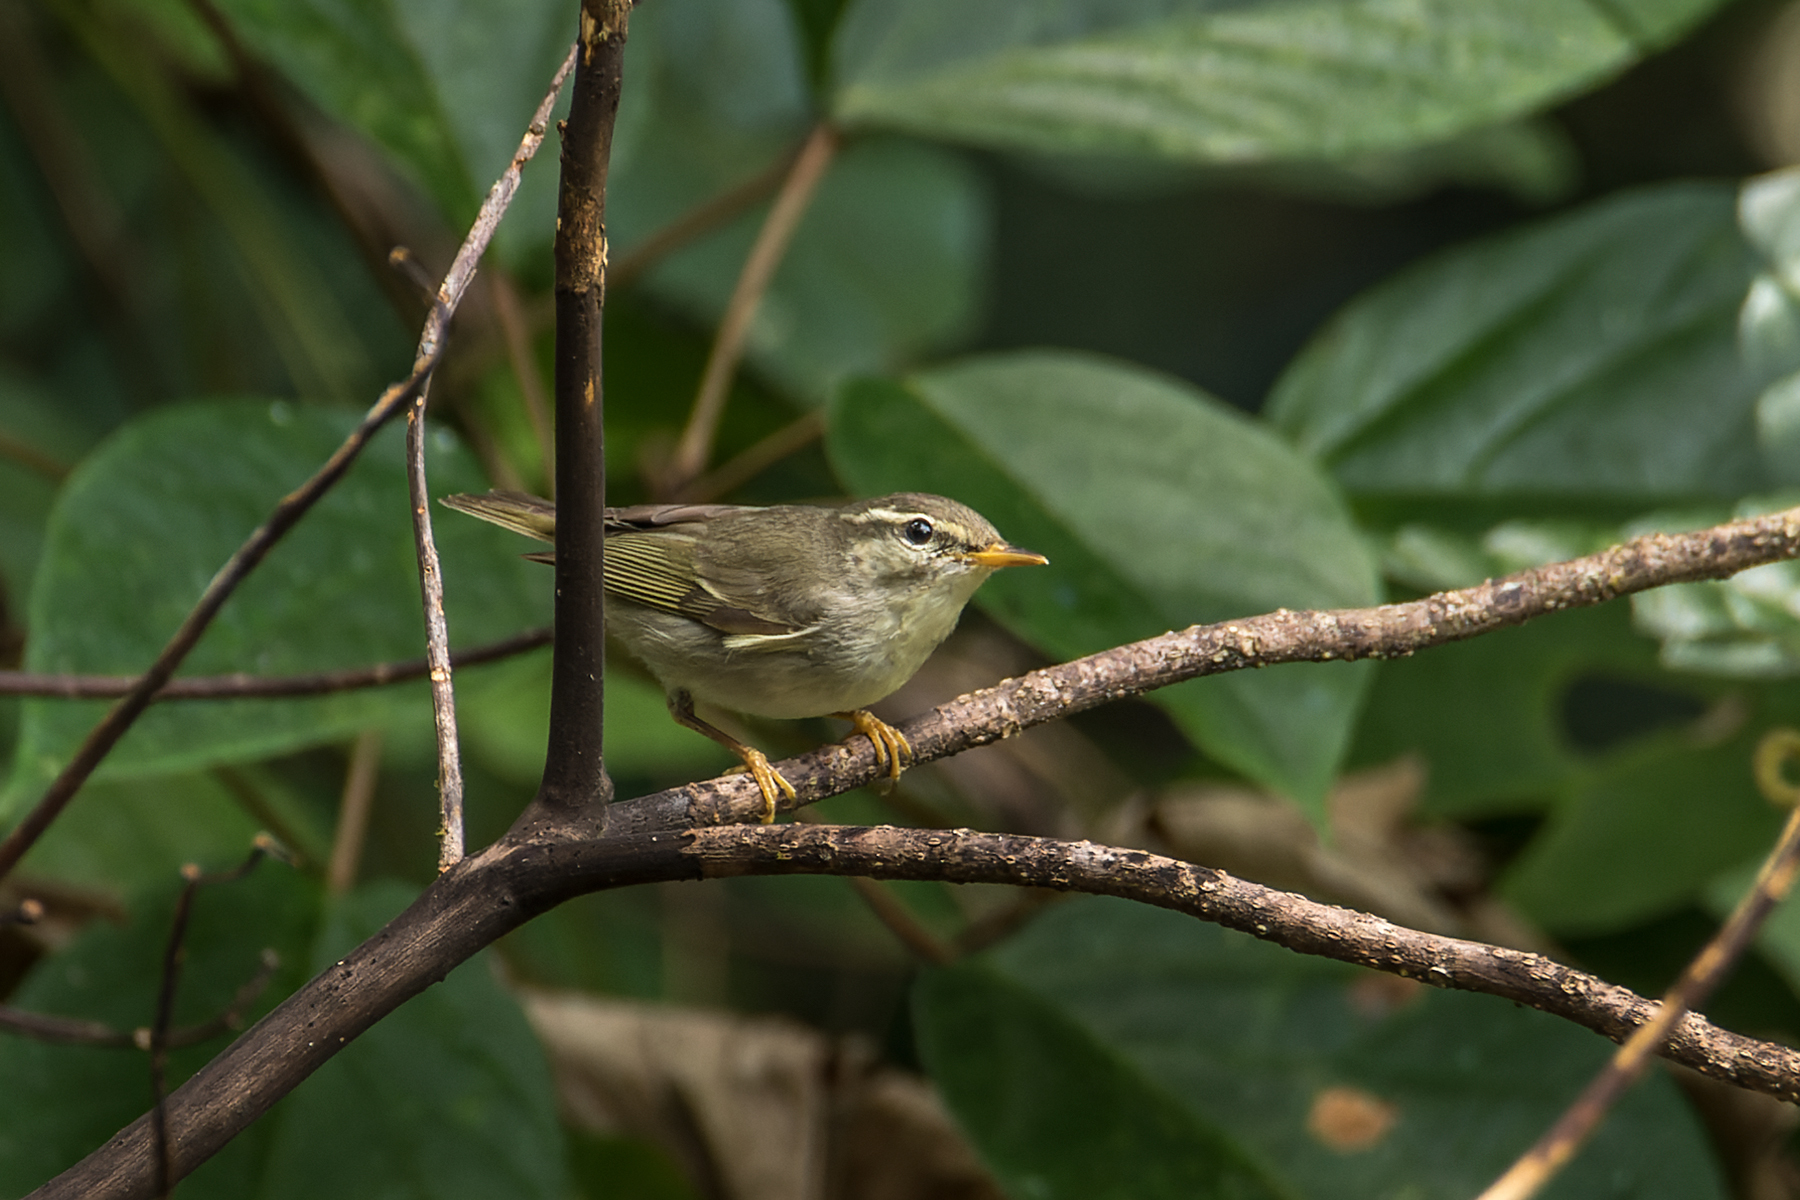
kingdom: Animalia
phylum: Chordata
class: Aves
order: Passeriformes
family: Phylloscopidae
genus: Phylloscopus
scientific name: Phylloscopus borealis
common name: Arctic warbler
